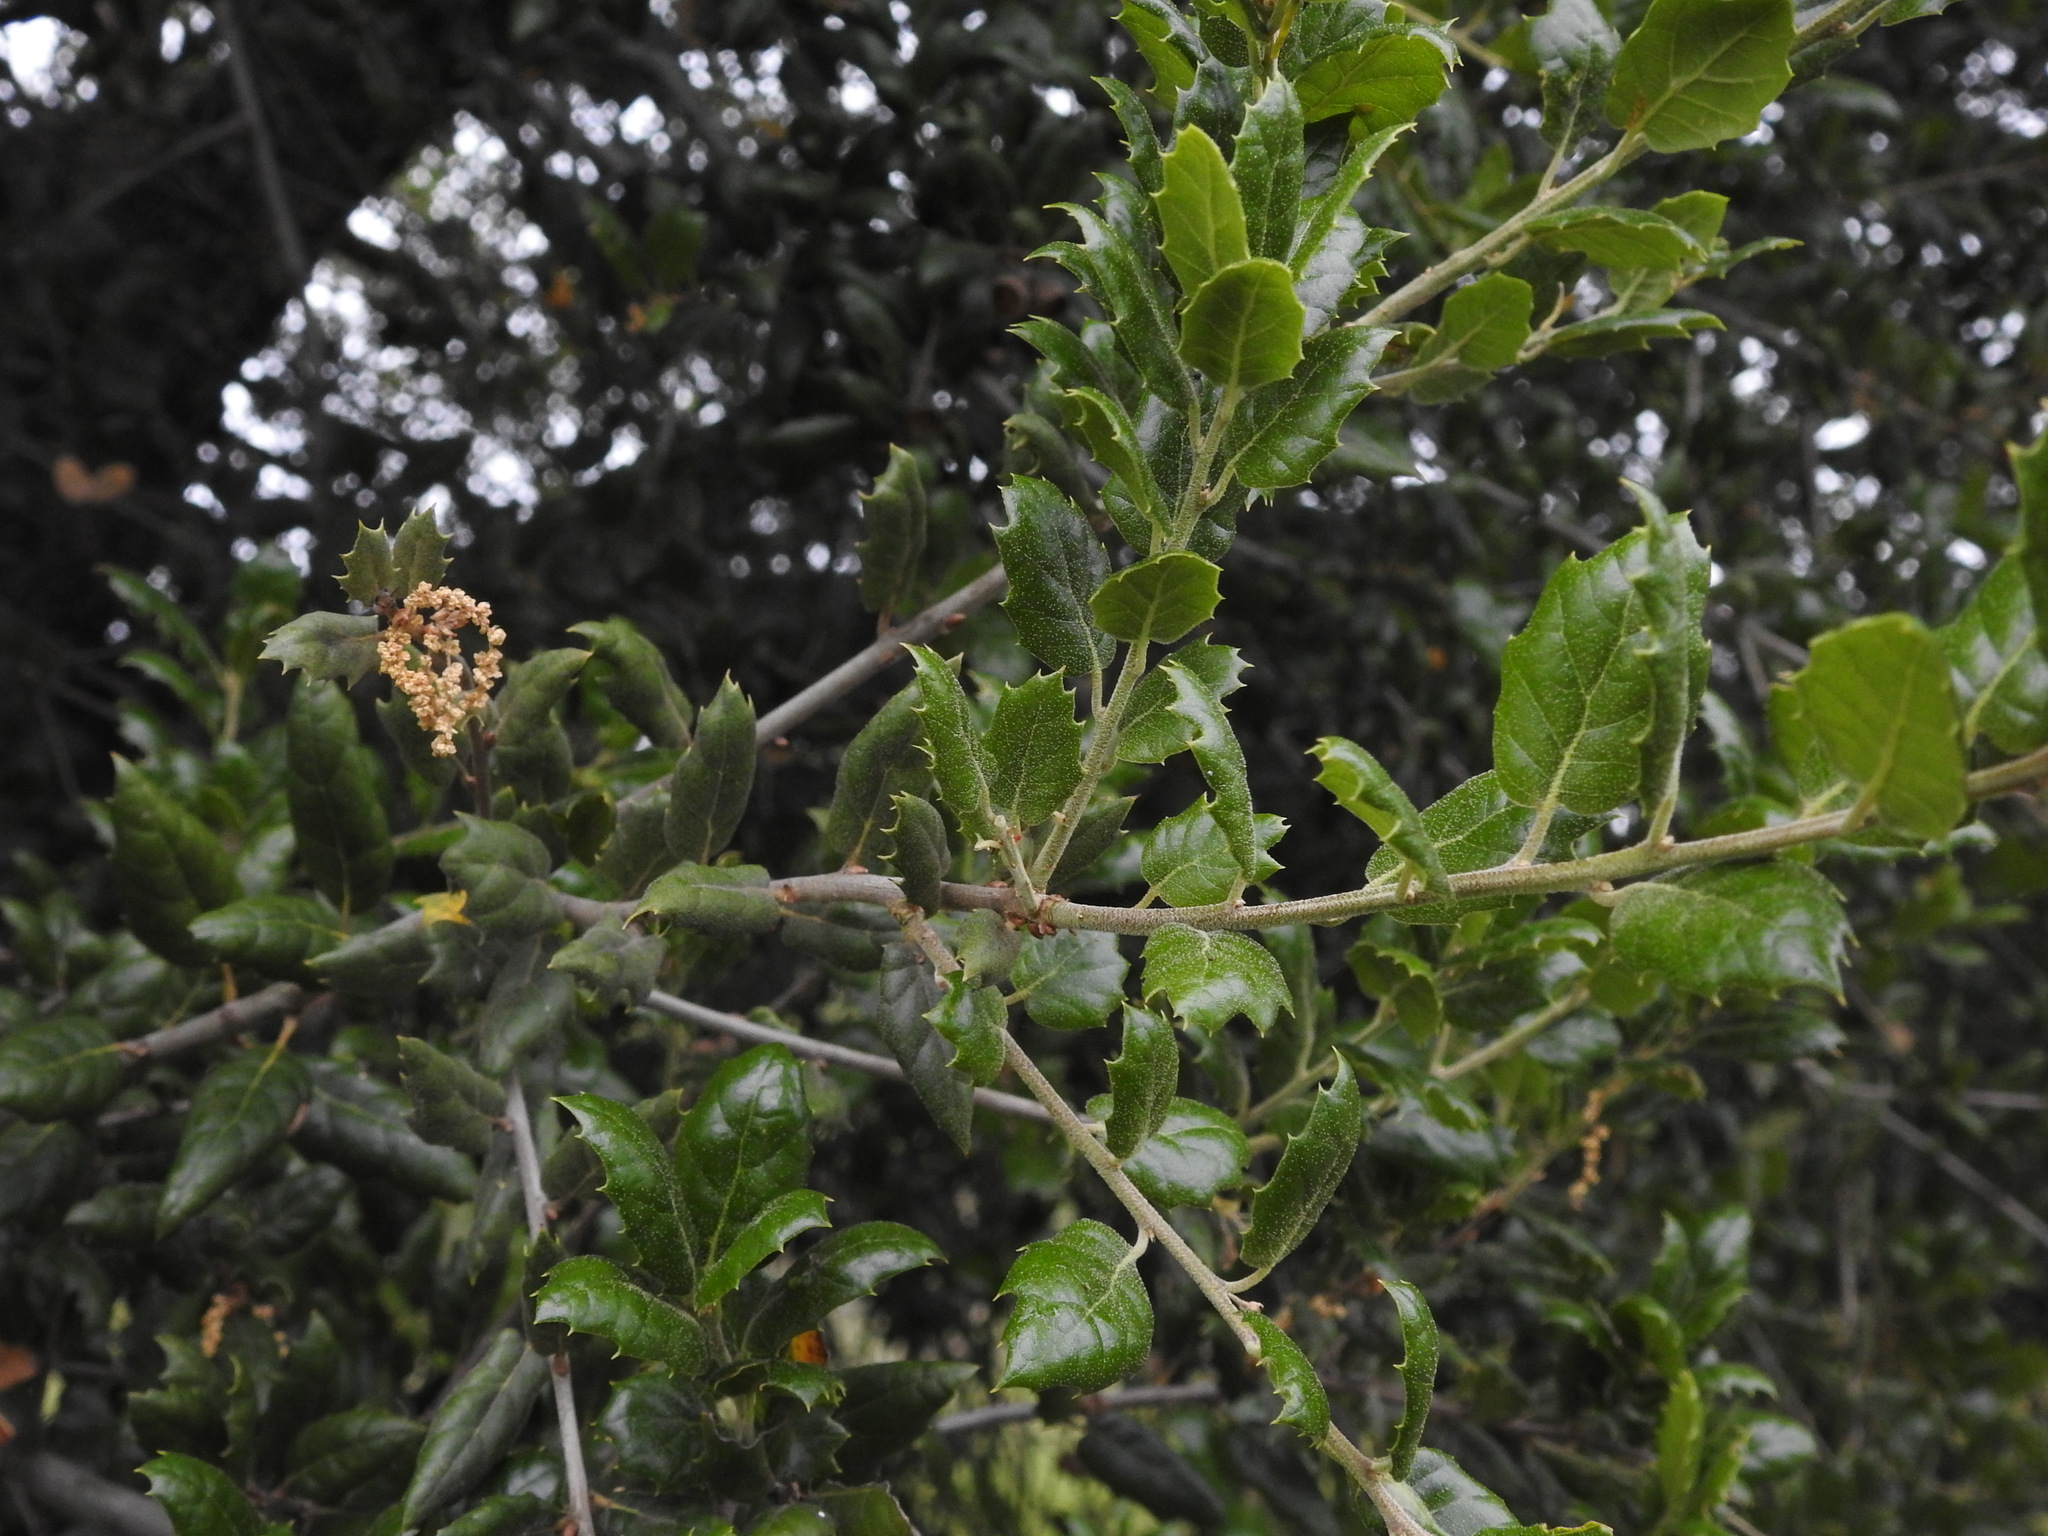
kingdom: Plantae
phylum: Tracheophyta
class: Magnoliopsida
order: Fagales
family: Fagaceae
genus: Quercus
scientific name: Quercus agrifolia
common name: California live oak
